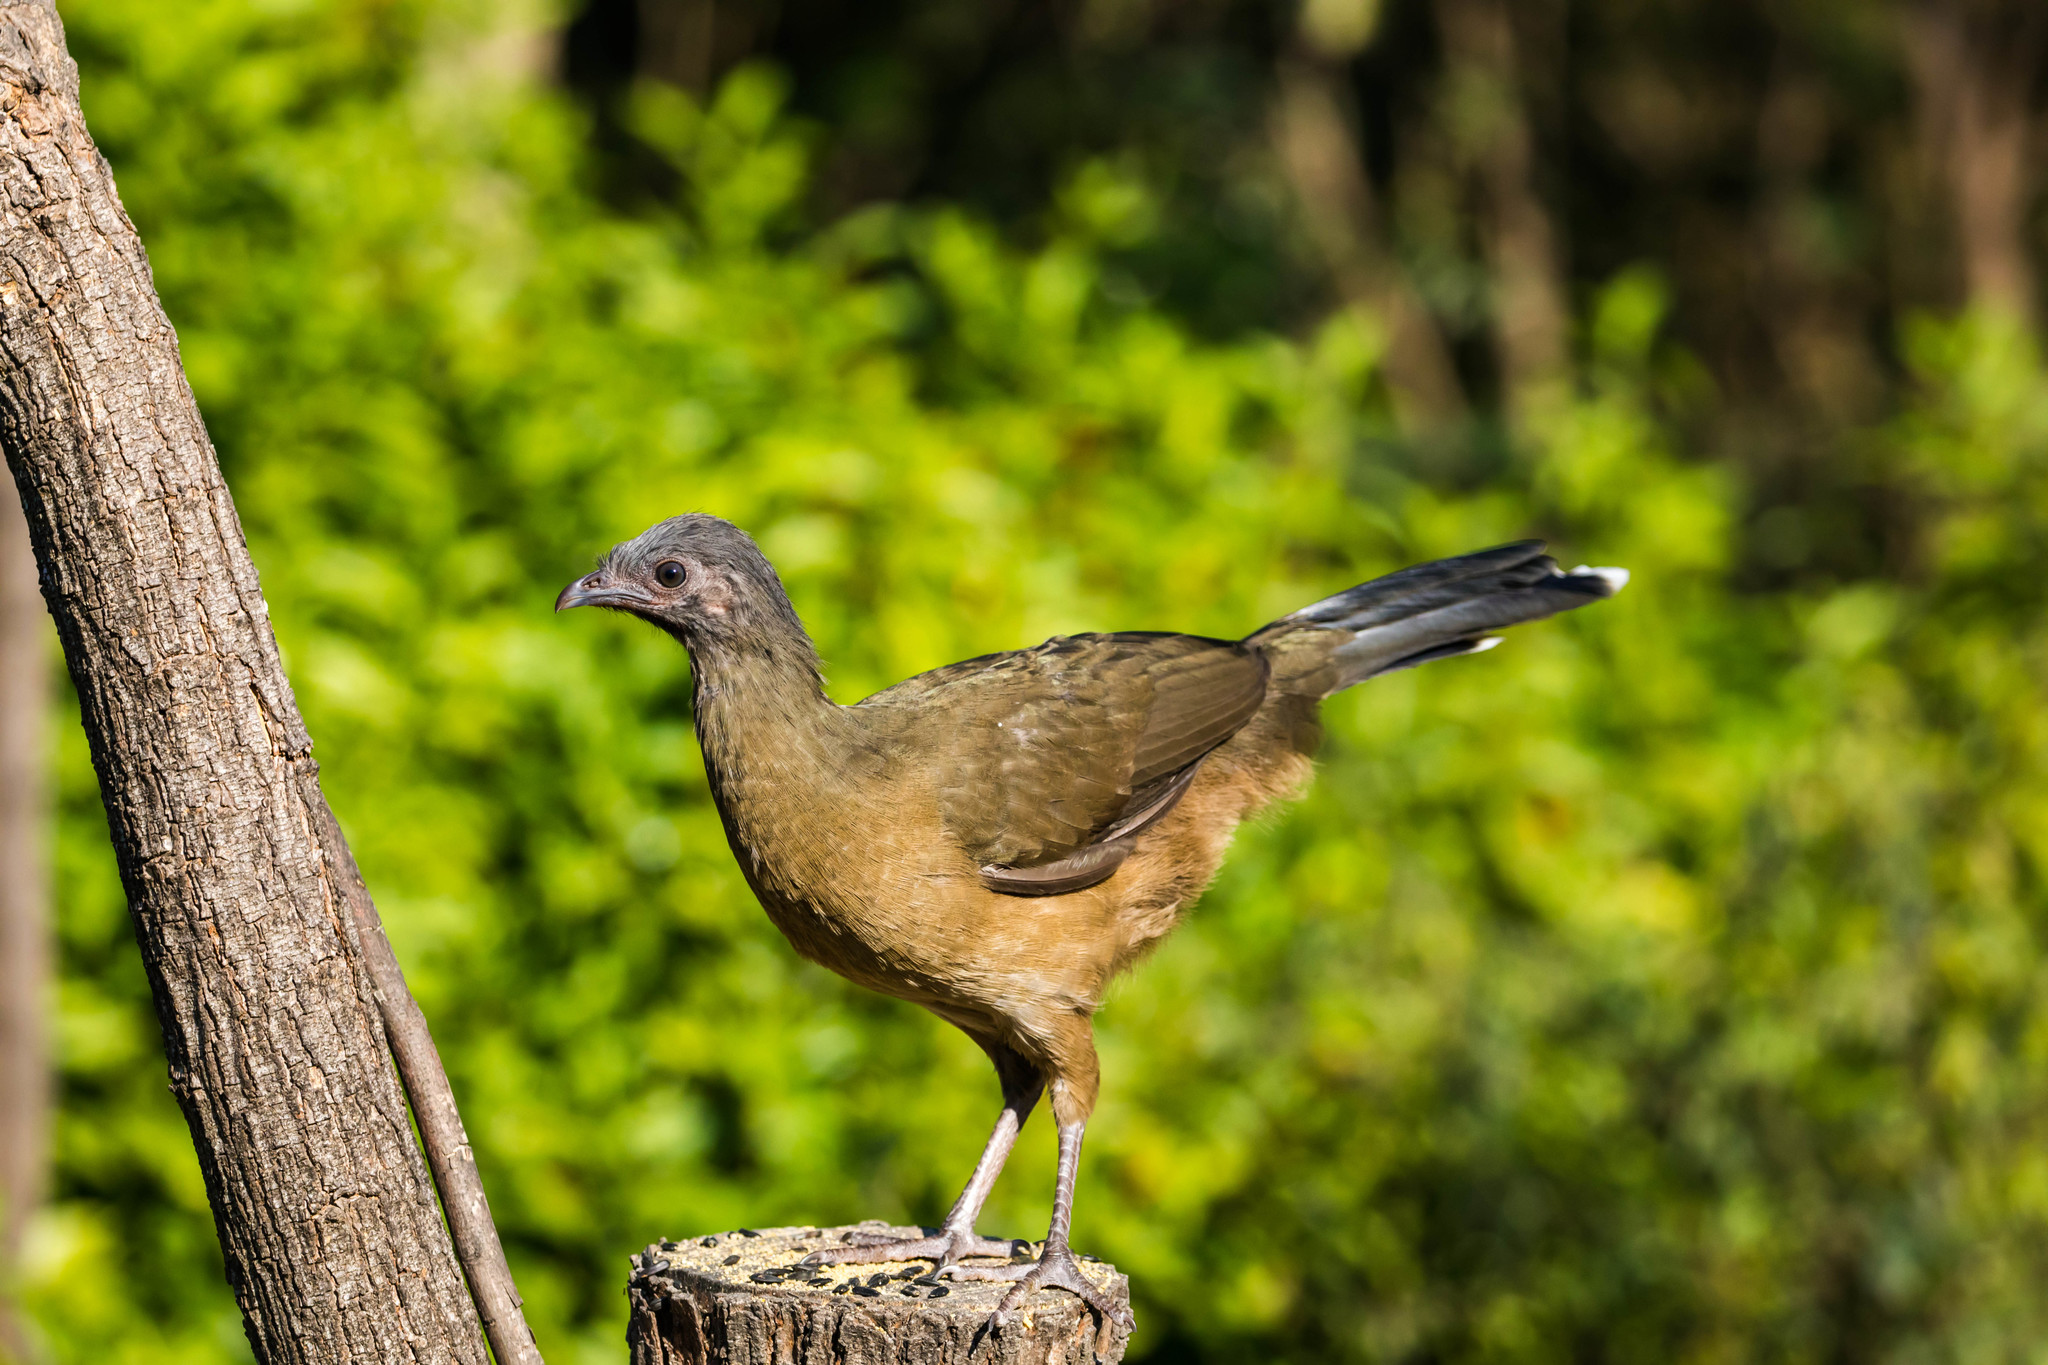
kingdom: Animalia
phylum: Chordata
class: Aves
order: Galliformes
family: Cracidae
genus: Ortalis
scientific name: Ortalis vetula
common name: Plain chachalaca
